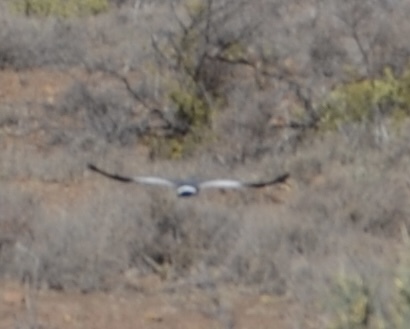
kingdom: Animalia
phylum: Chordata
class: Aves
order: Accipitriformes
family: Accipitridae
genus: Melierax
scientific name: Melierax canorus
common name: Pale chanting-goshawk
